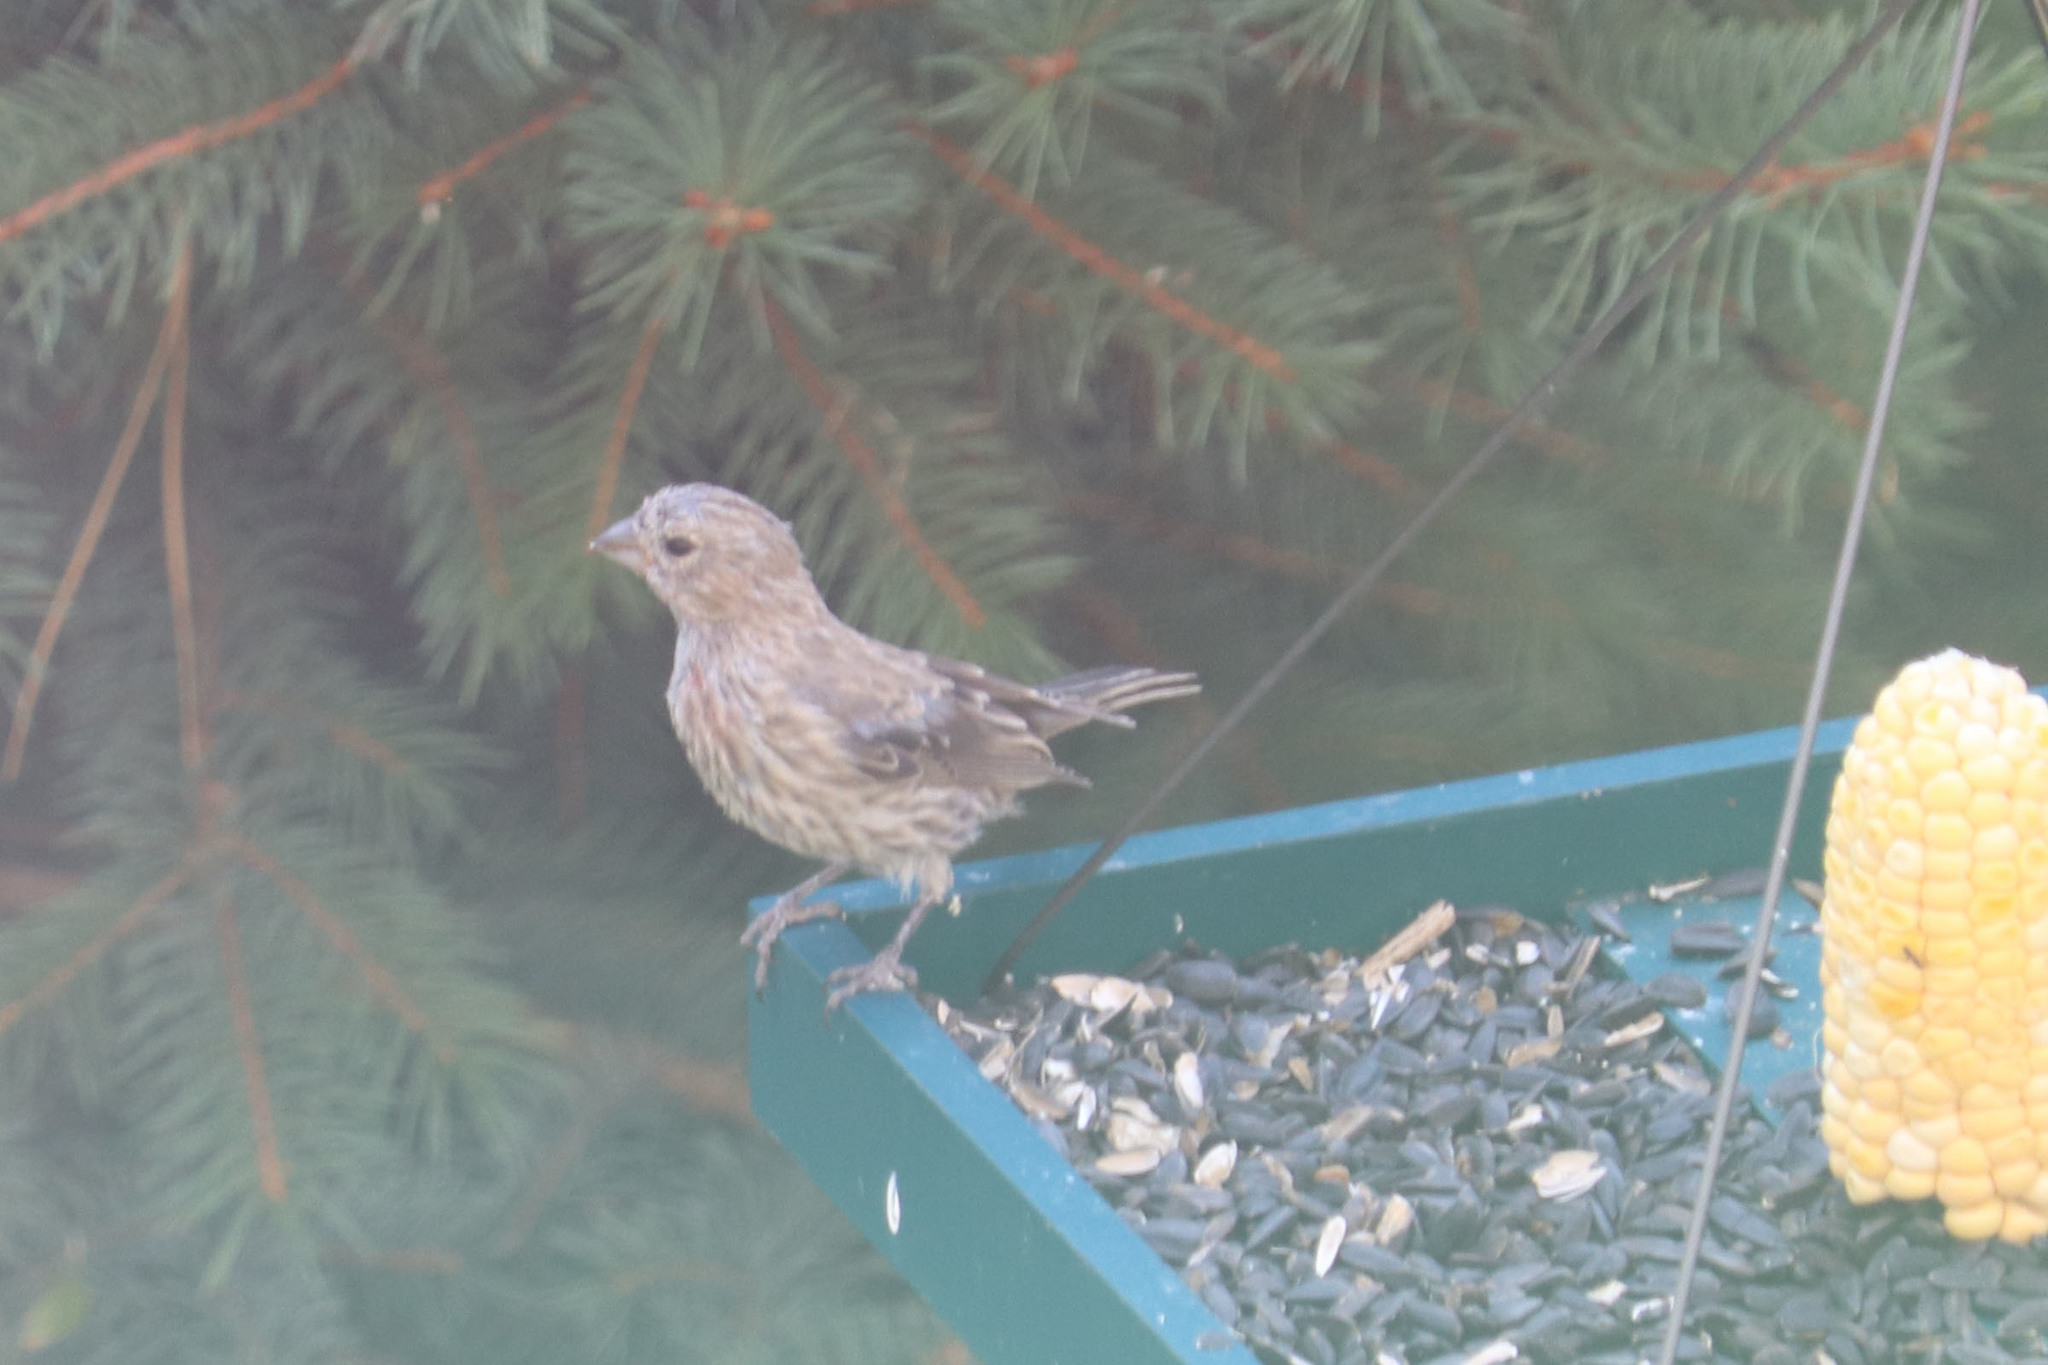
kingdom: Animalia
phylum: Chordata
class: Aves
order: Passeriformes
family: Fringillidae
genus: Haemorhous
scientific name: Haemorhous mexicanus
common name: House finch
